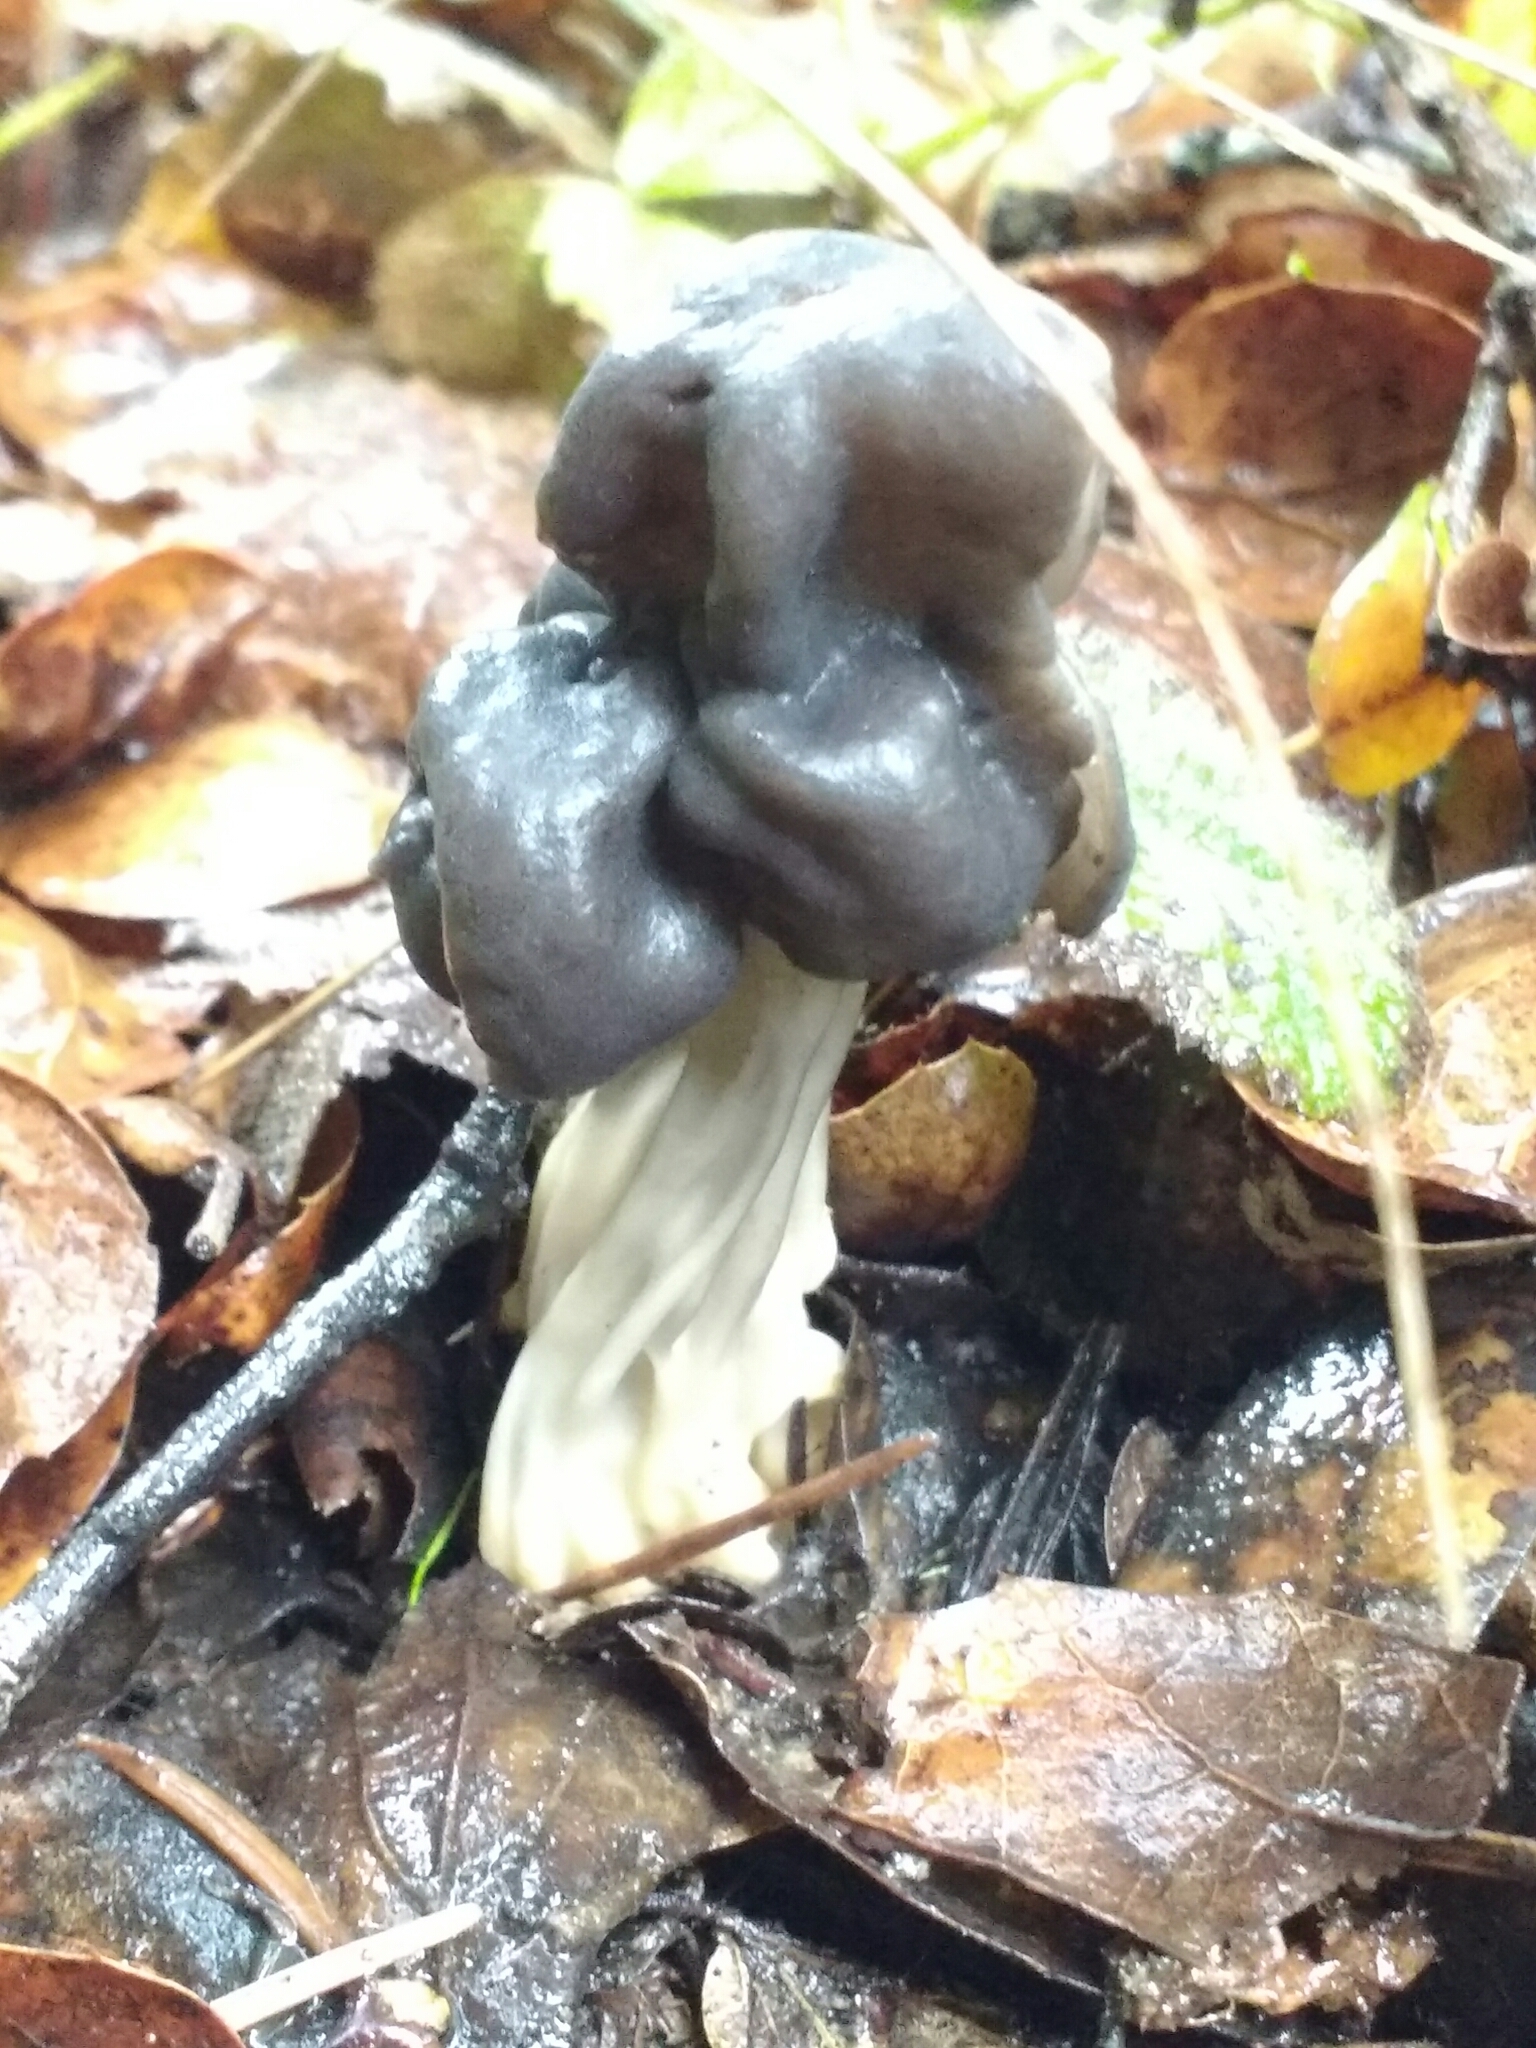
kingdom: Fungi
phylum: Ascomycota
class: Pezizomycetes
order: Pezizales
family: Helvellaceae
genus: Helvella
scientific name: Helvella dryophila
